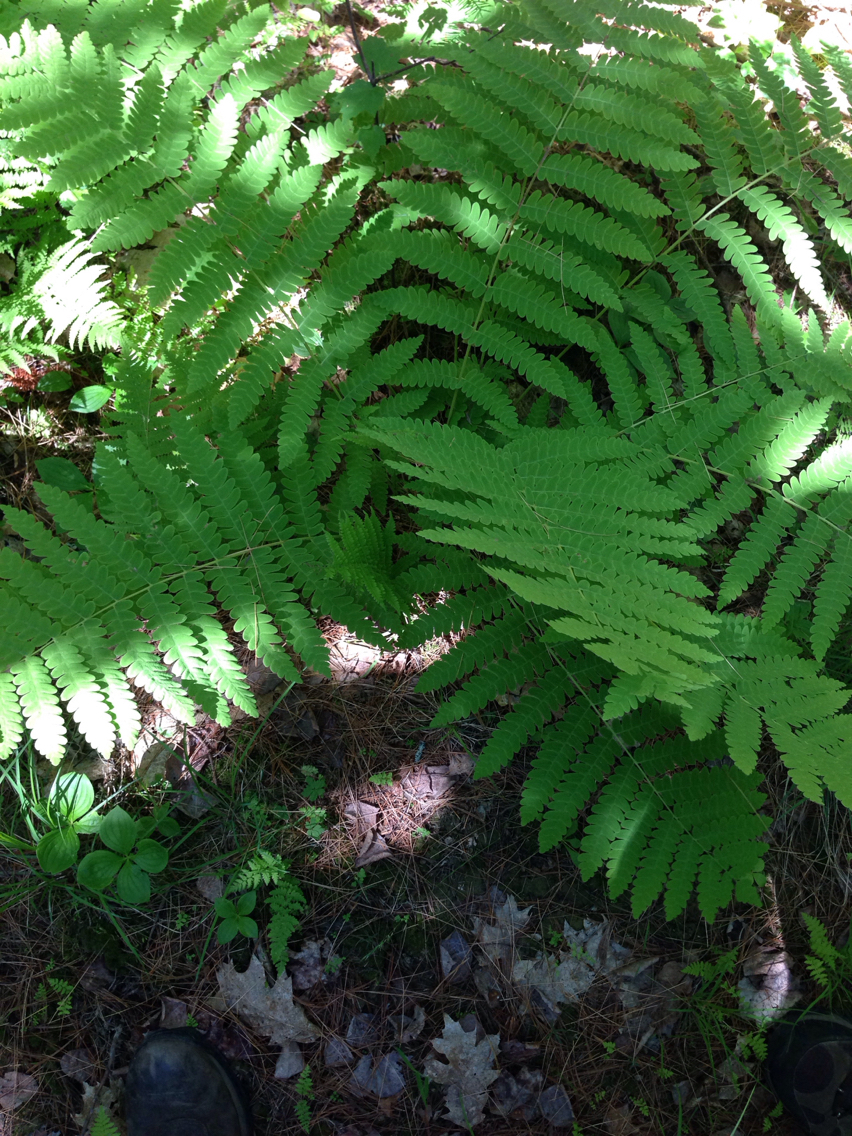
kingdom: Plantae
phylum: Tracheophyta
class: Polypodiopsida
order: Osmundales
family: Osmundaceae
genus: Claytosmunda
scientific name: Claytosmunda claytoniana
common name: Clayton's fern
